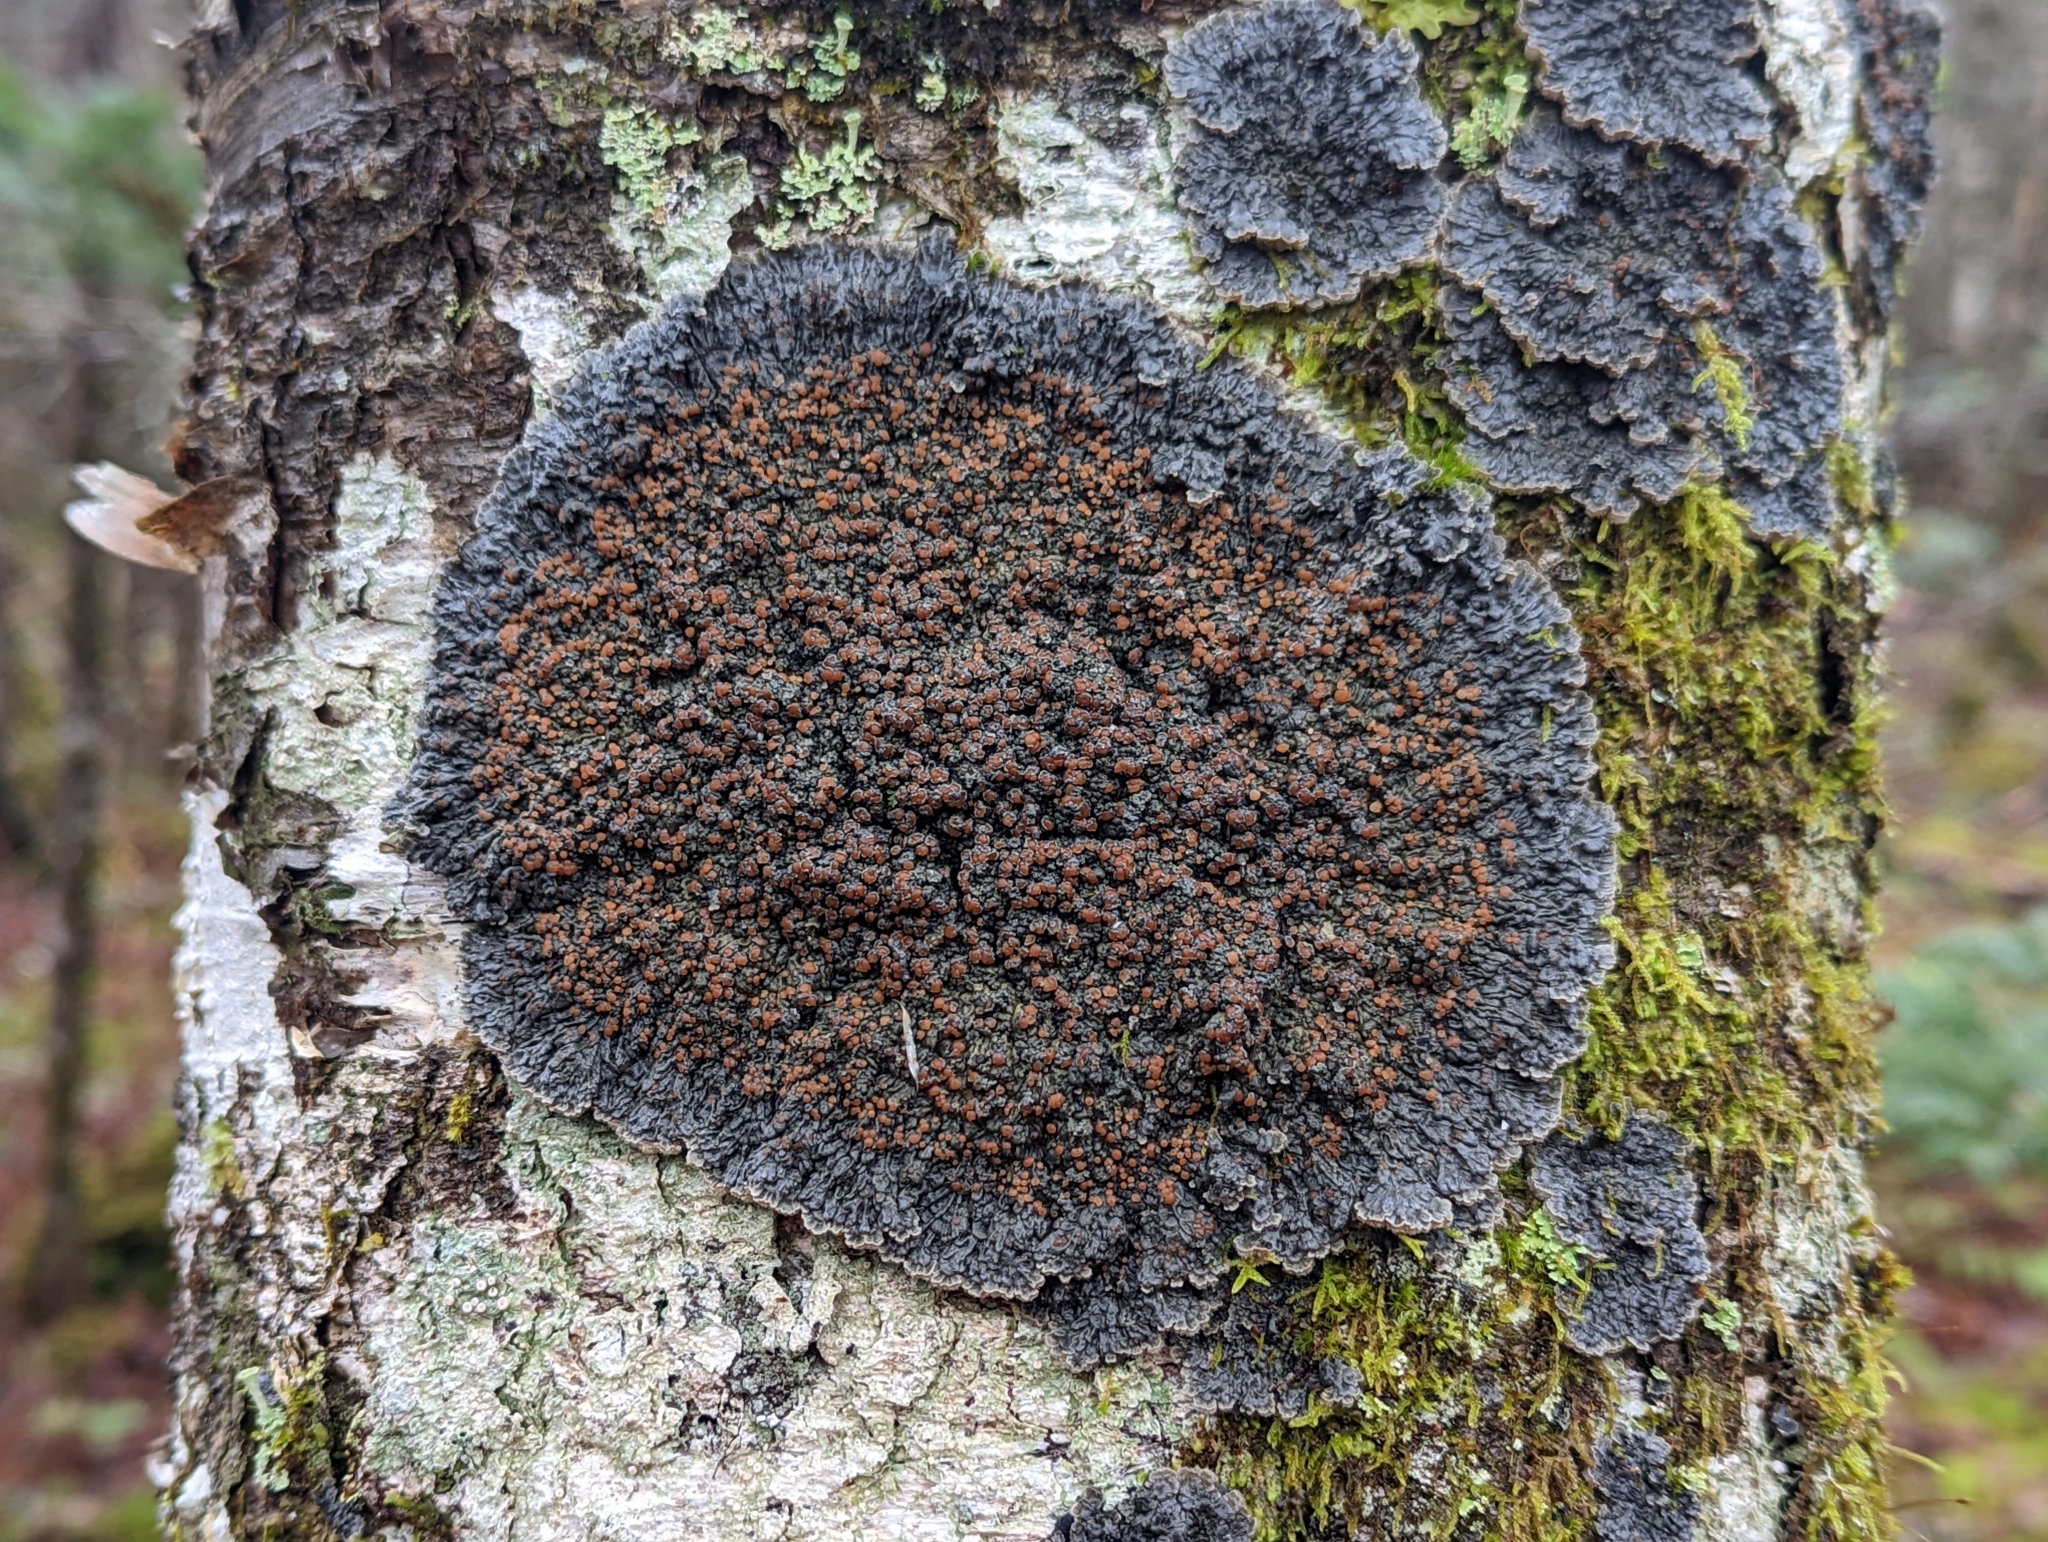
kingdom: Fungi
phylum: Ascomycota
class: Lecanoromycetes
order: Peltigerales
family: Pannariaceae
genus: Pectenia
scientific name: Pectenia plumbea
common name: Bladder stalks
